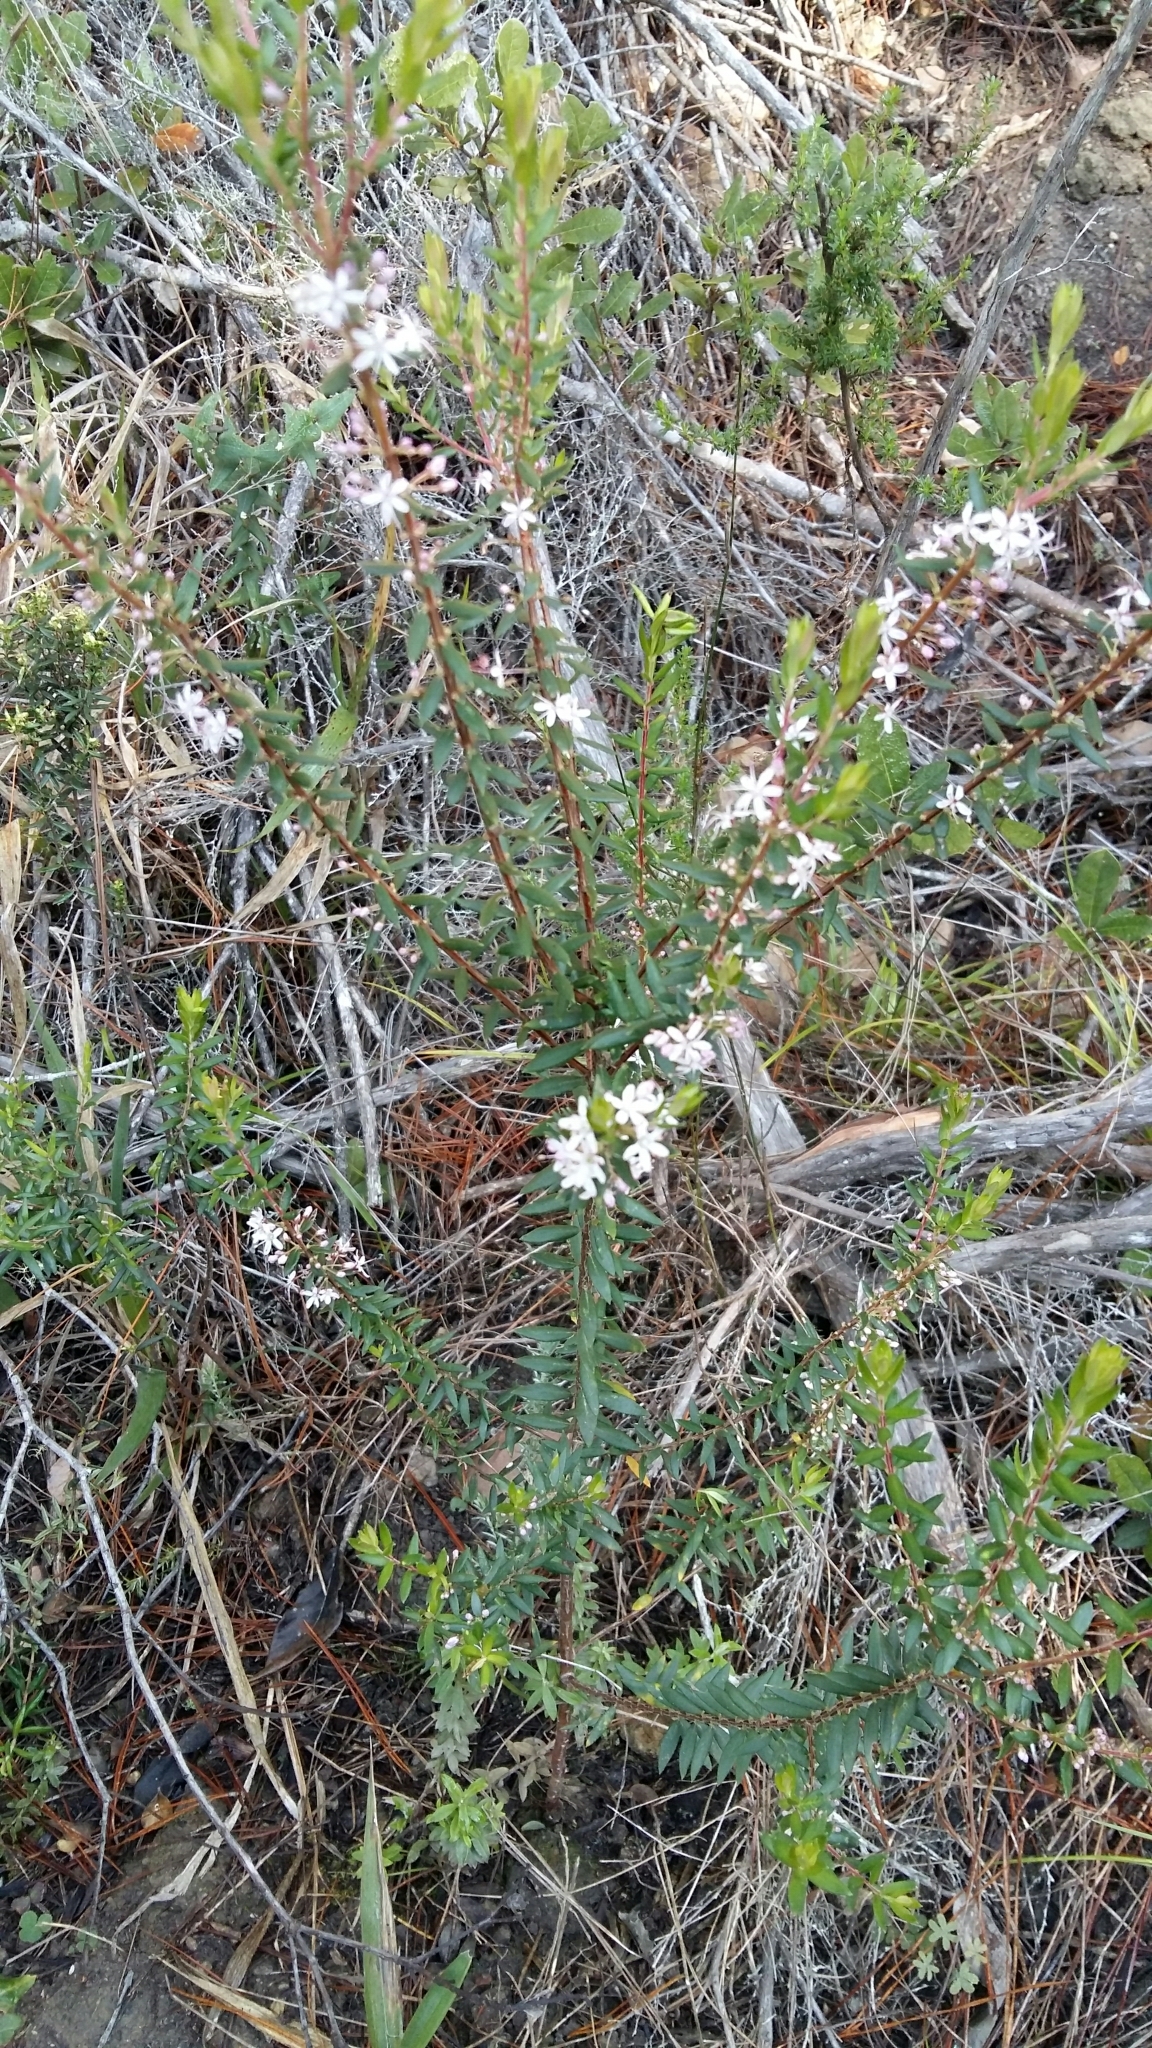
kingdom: Plantae
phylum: Tracheophyta
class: Magnoliopsida
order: Sapindales
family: Rutaceae
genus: Agathosma
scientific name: Agathosma ovata
